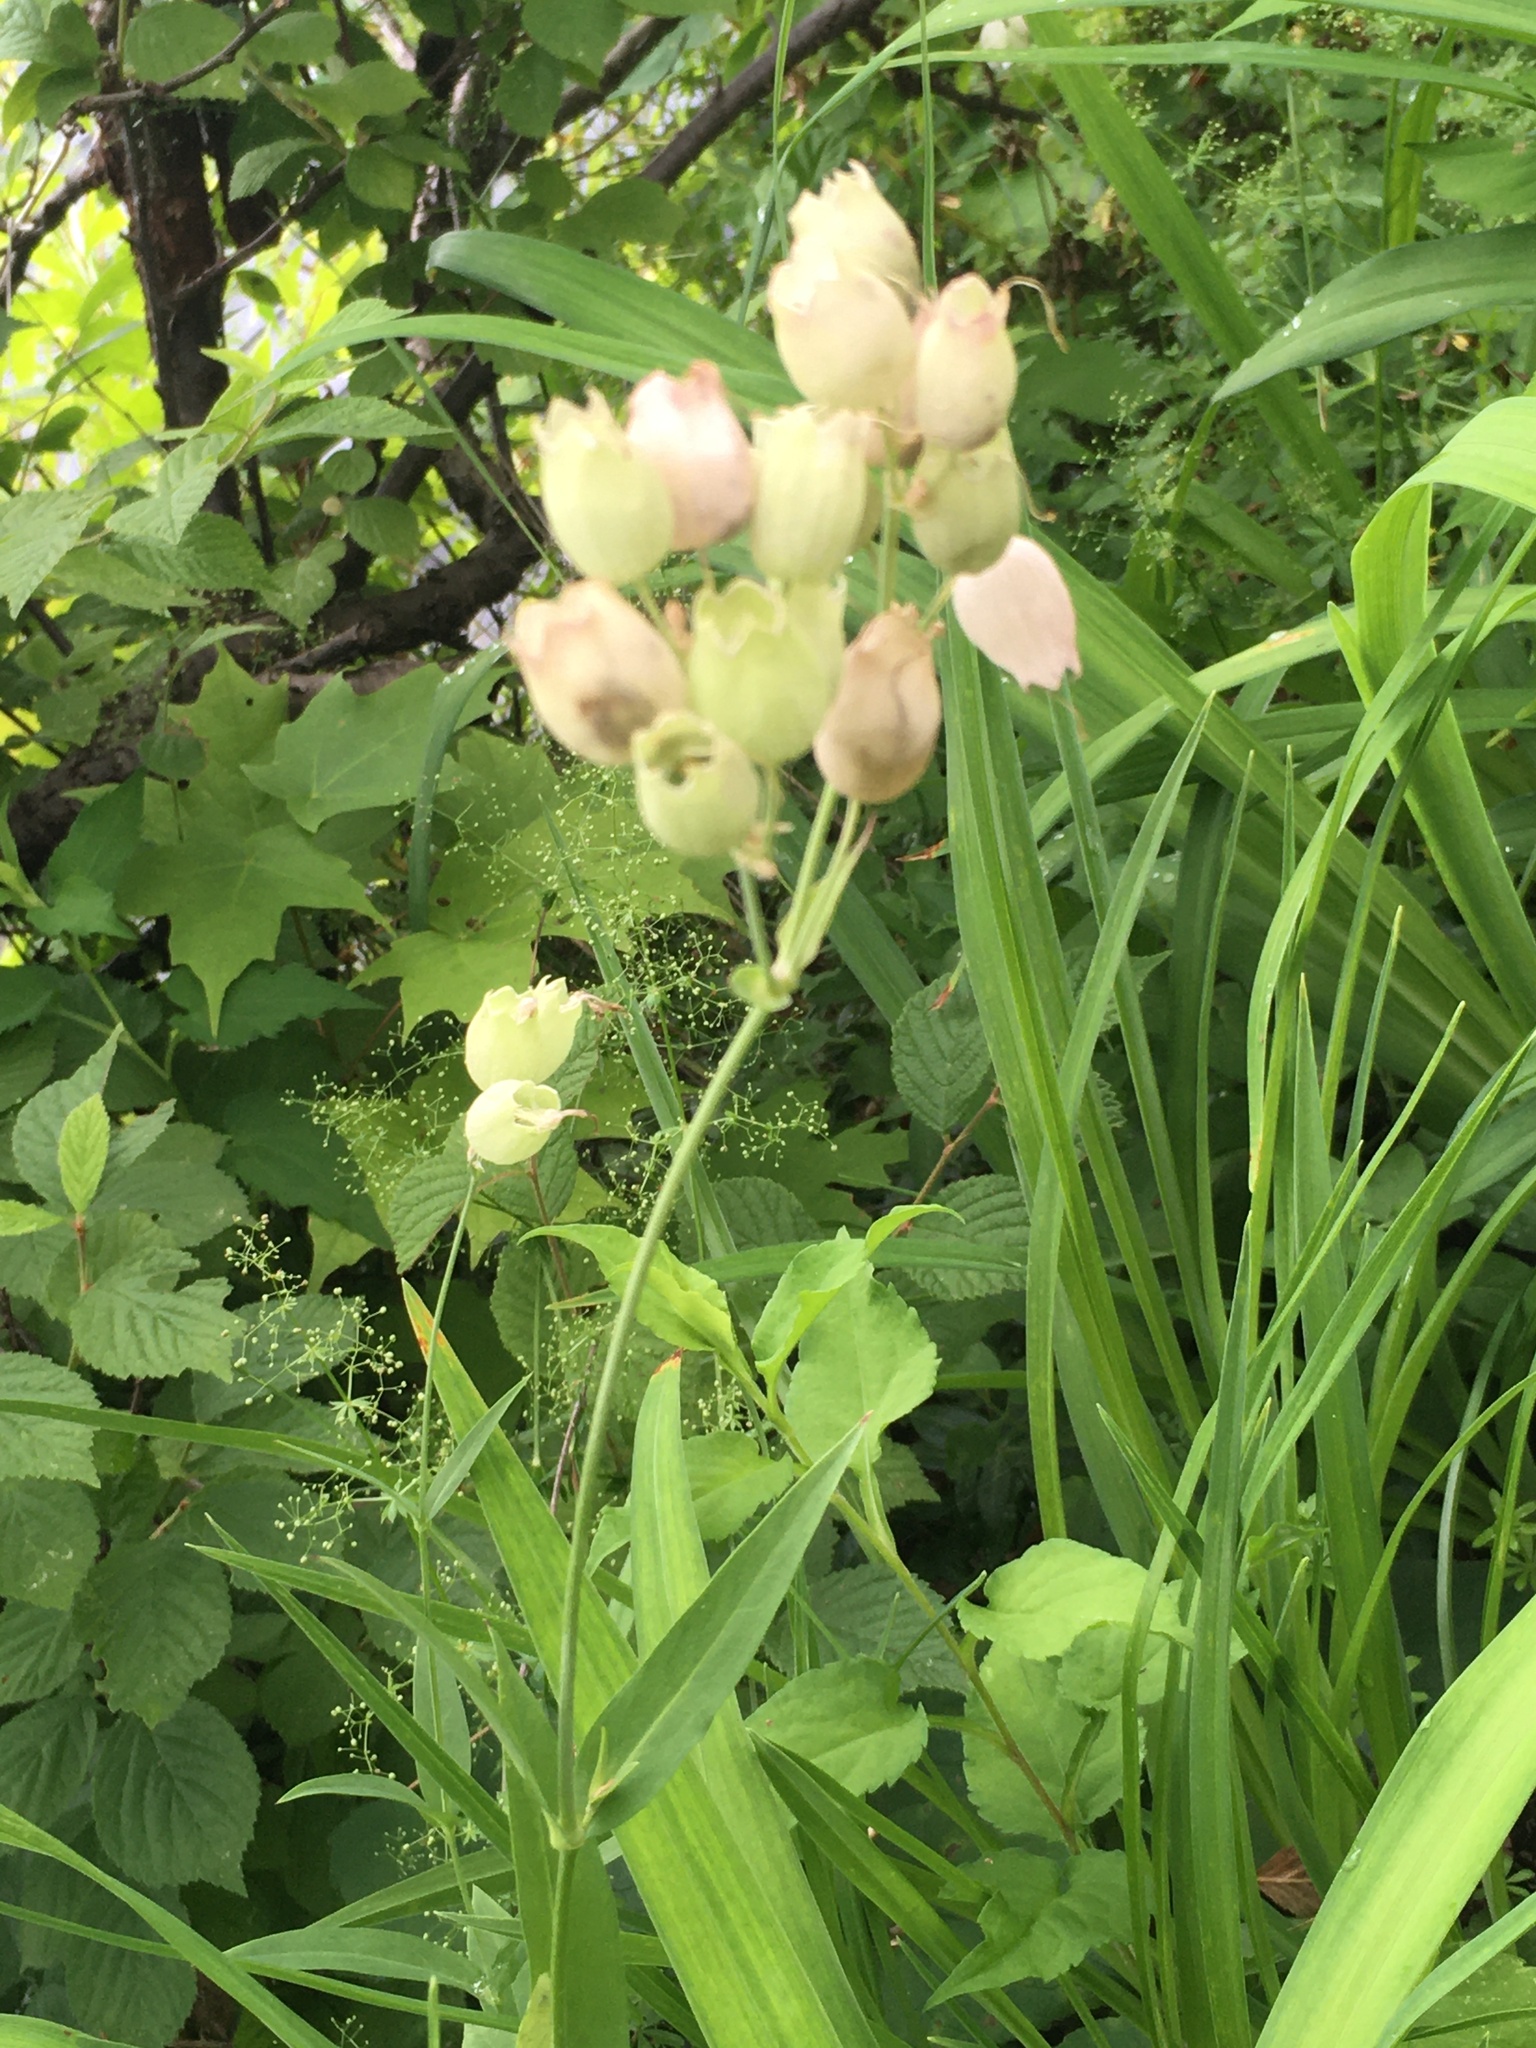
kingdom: Plantae
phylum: Tracheophyta
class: Magnoliopsida
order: Caryophyllales
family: Caryophyllaceae
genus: Silene
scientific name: Silene vulgaris
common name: Bladder campion
